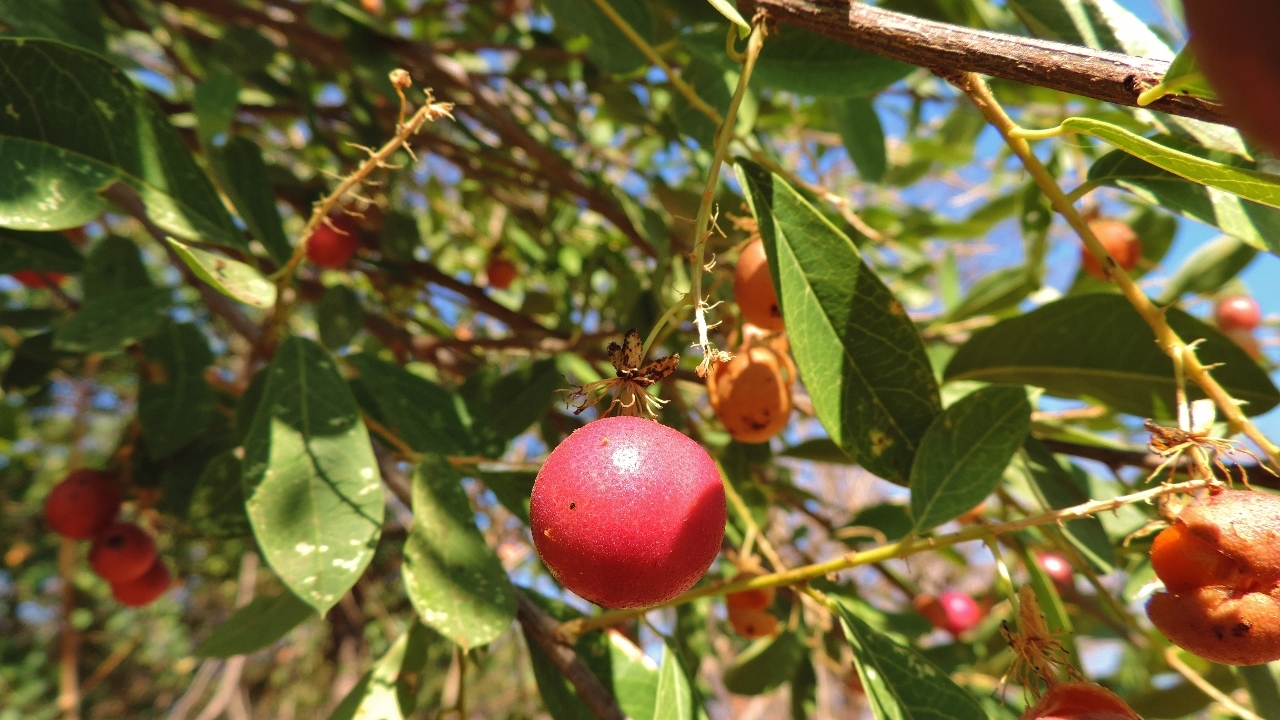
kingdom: Plantae
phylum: Tracheophyta
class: Magnoliopsida
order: Brassicales
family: Capparaceae
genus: Boscia
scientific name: Boscia mossambicensis
